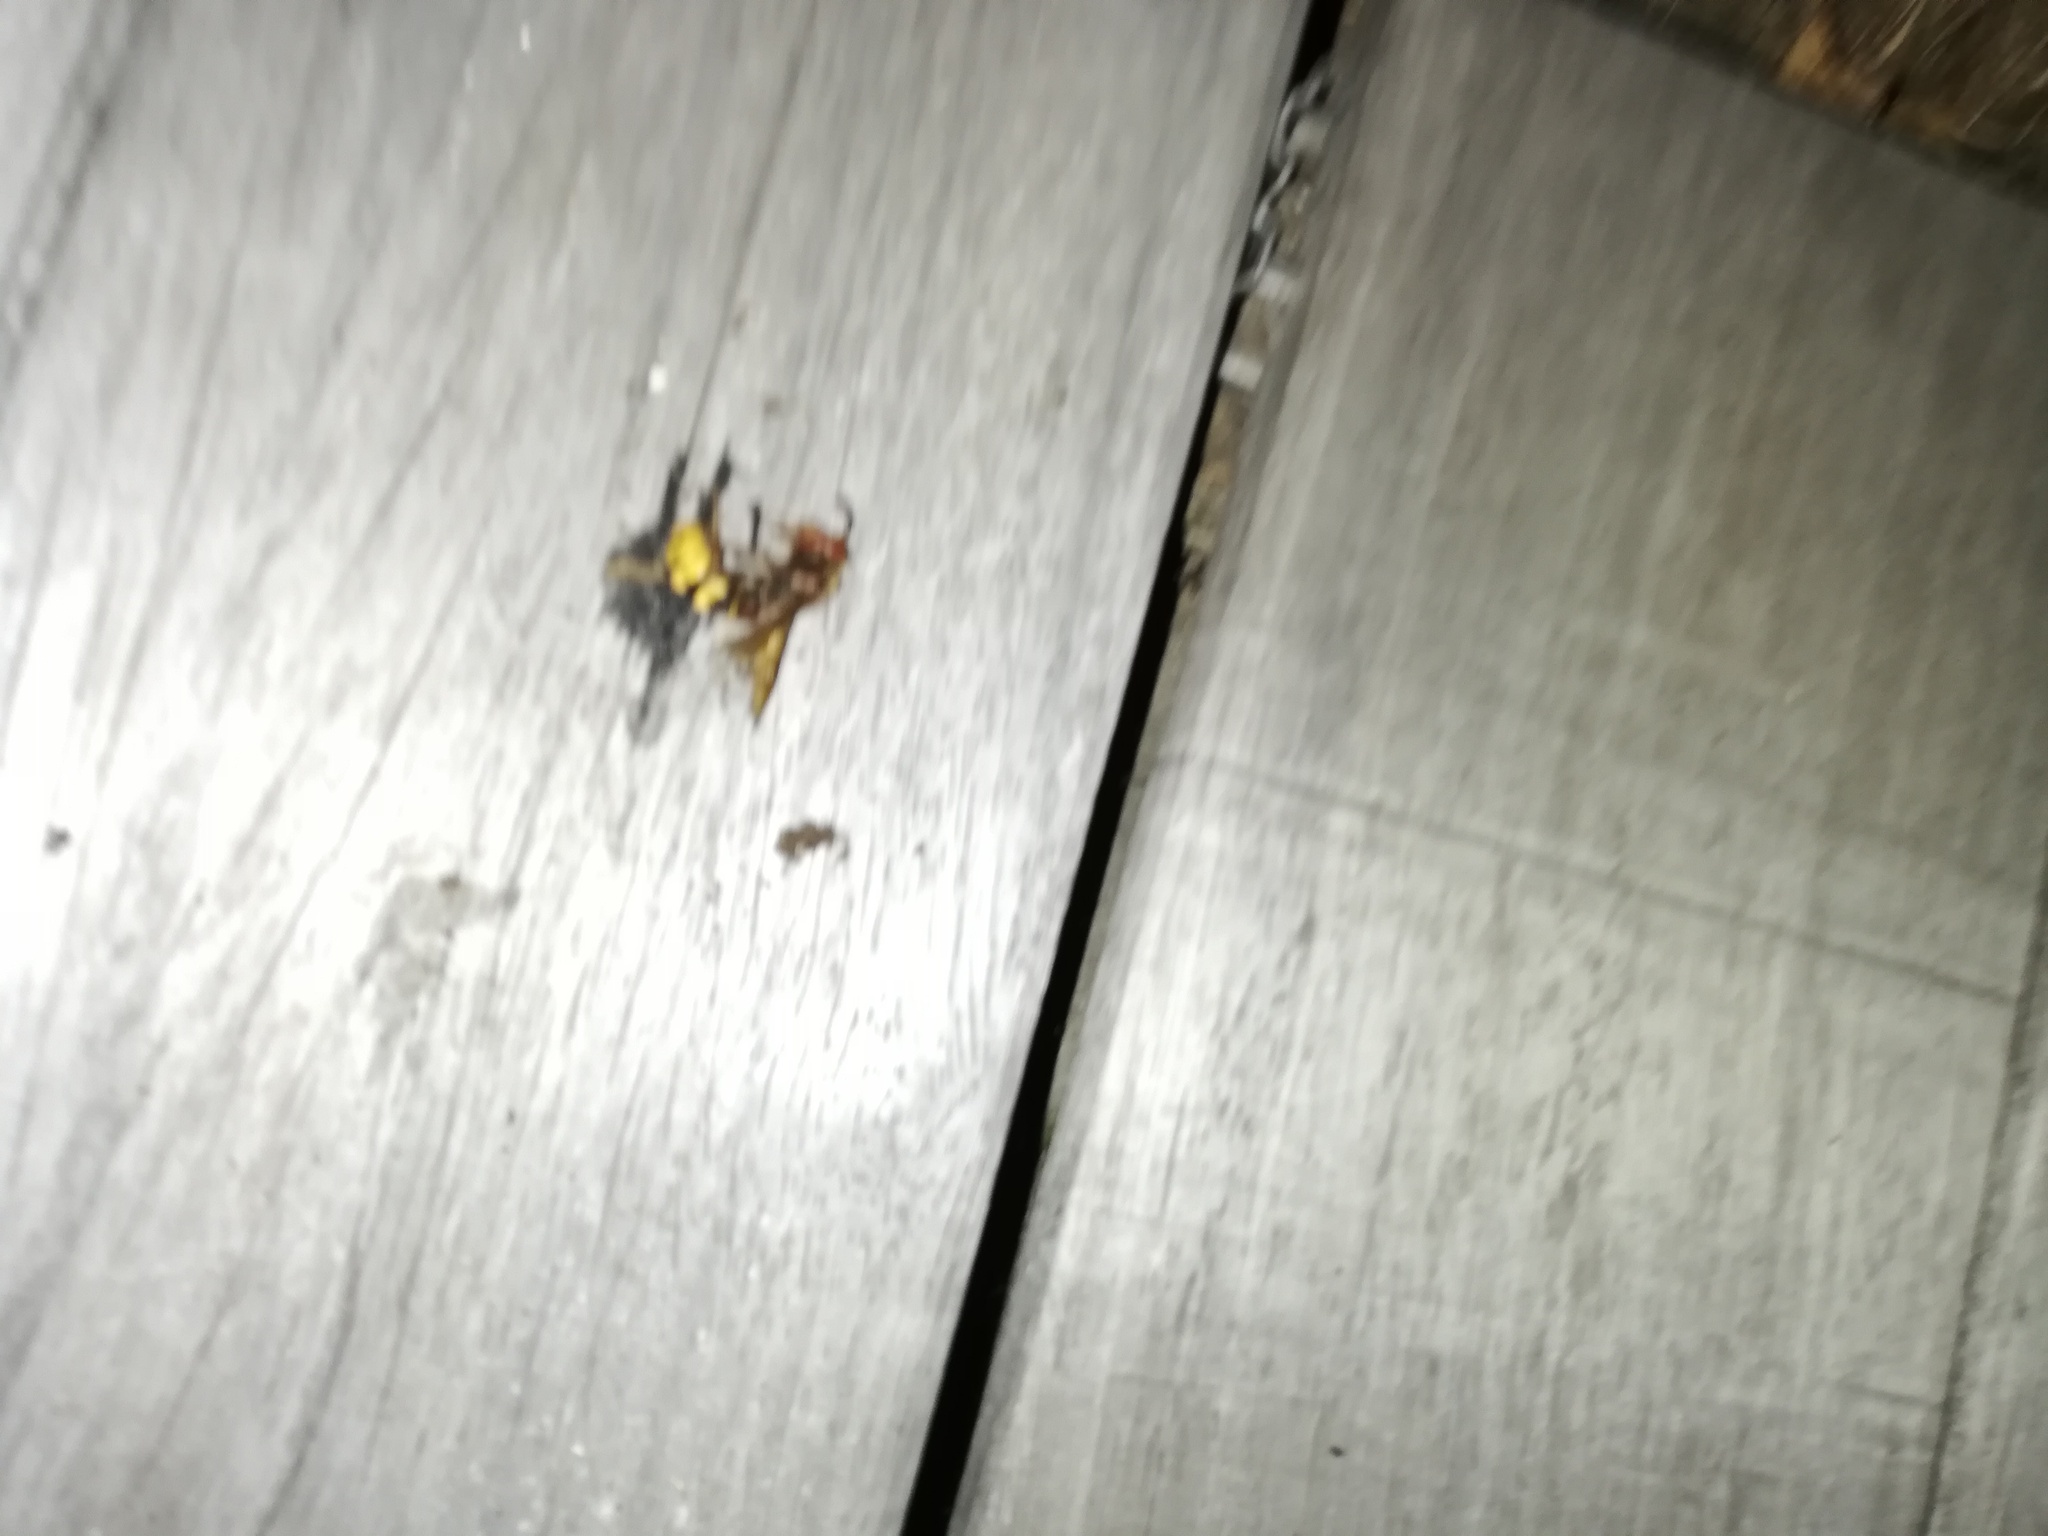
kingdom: Animalia
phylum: Arthropoda
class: Insecta
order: Hymenoptera
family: Vespidae
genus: Vespa
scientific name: Vespa crabro
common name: Hornet
